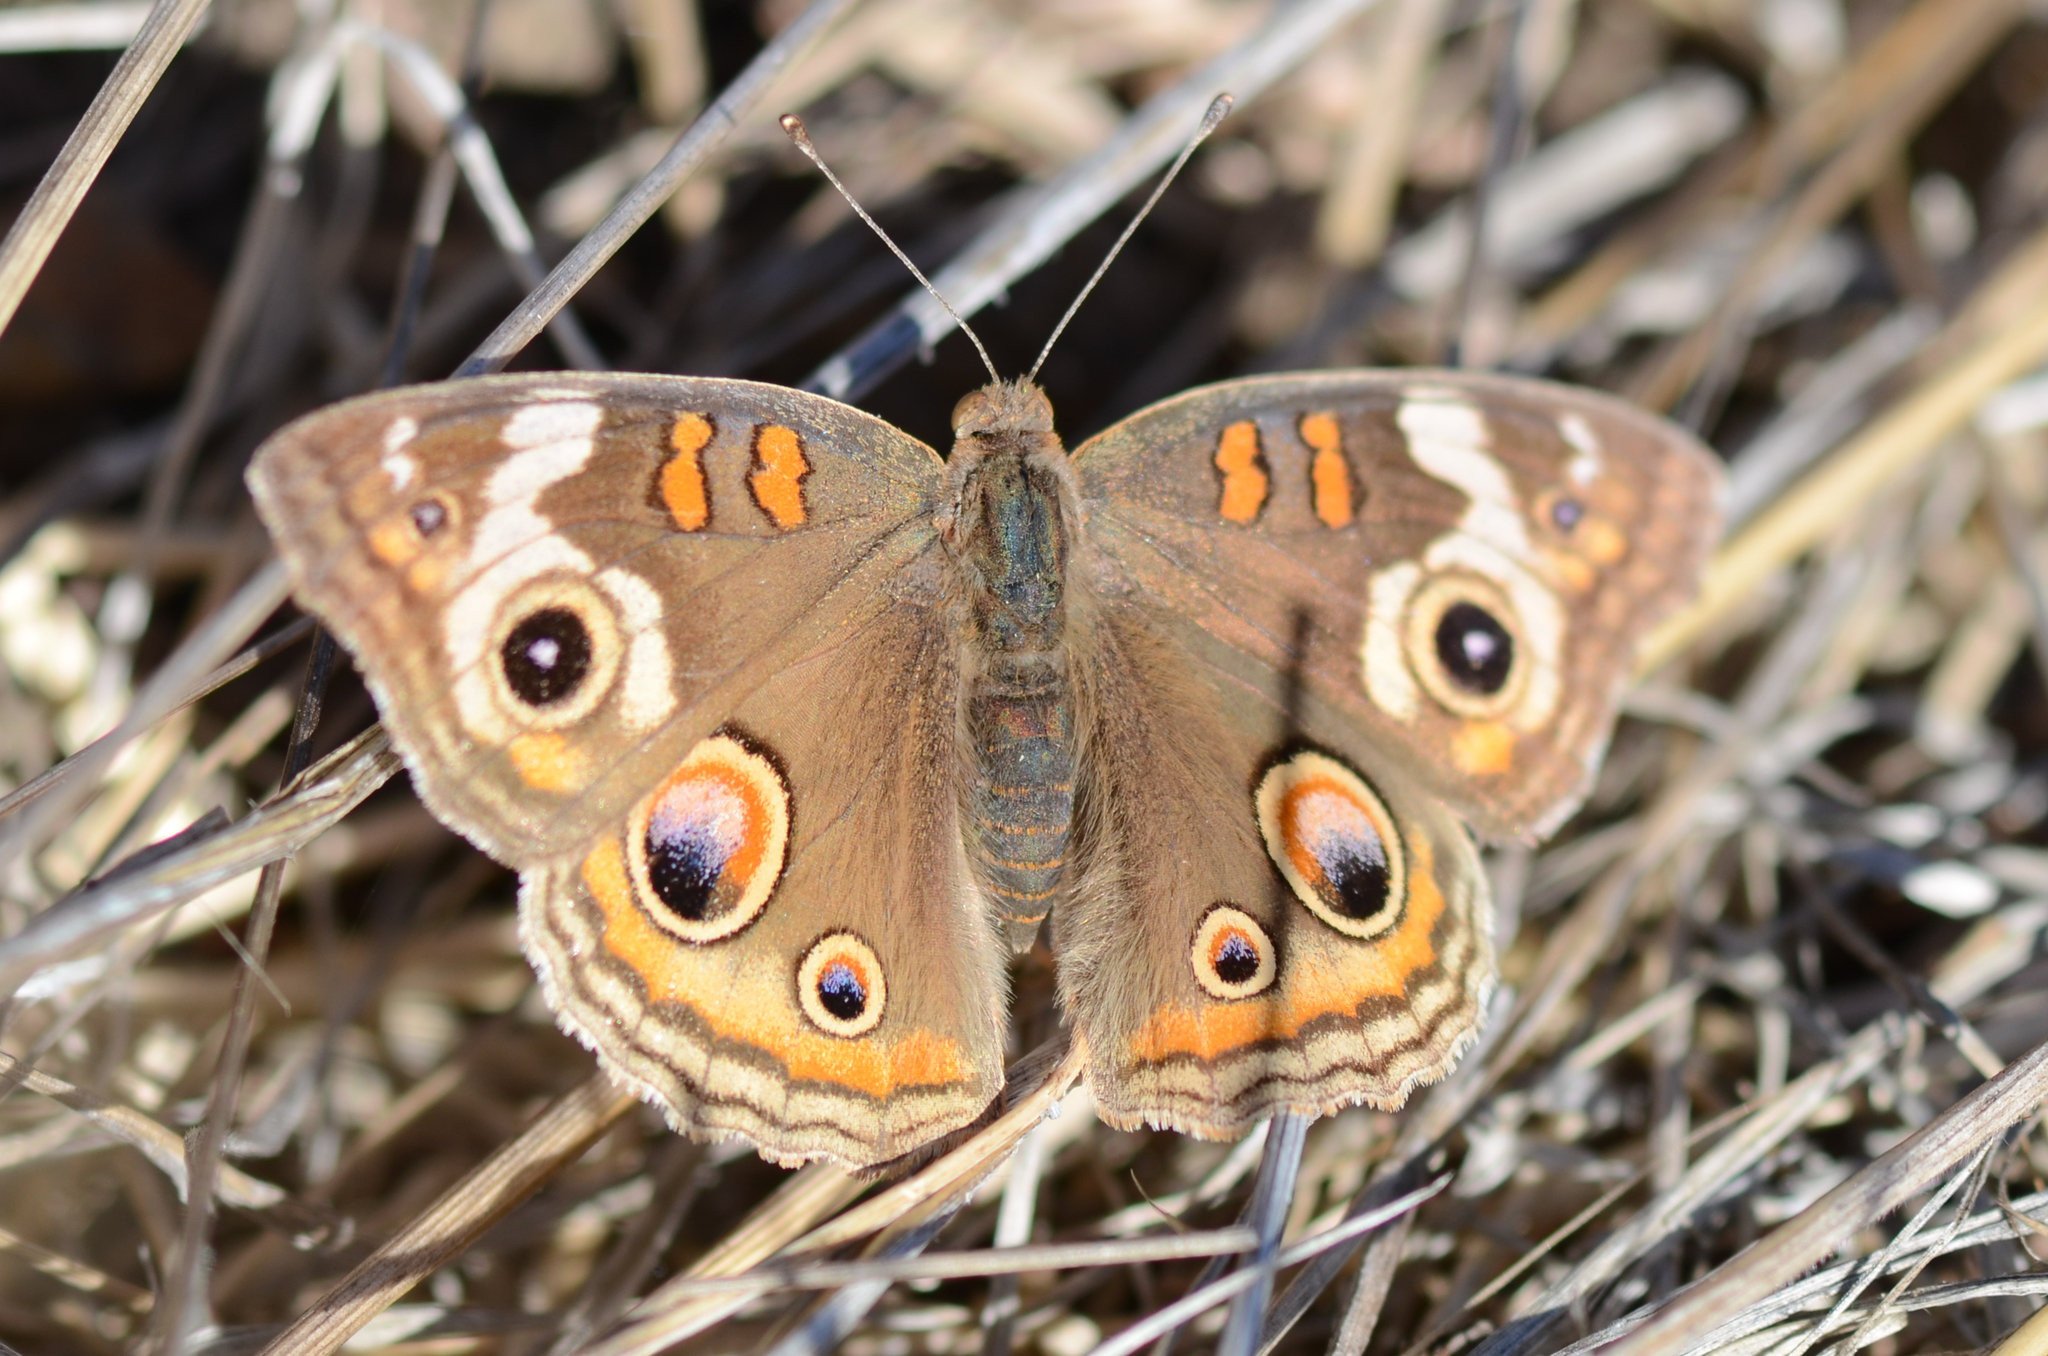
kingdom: Animalia
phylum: Arthropoda
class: Insecta
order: Lepidoptera
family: Nymphalidae
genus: Junonia
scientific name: Junonia grisea
